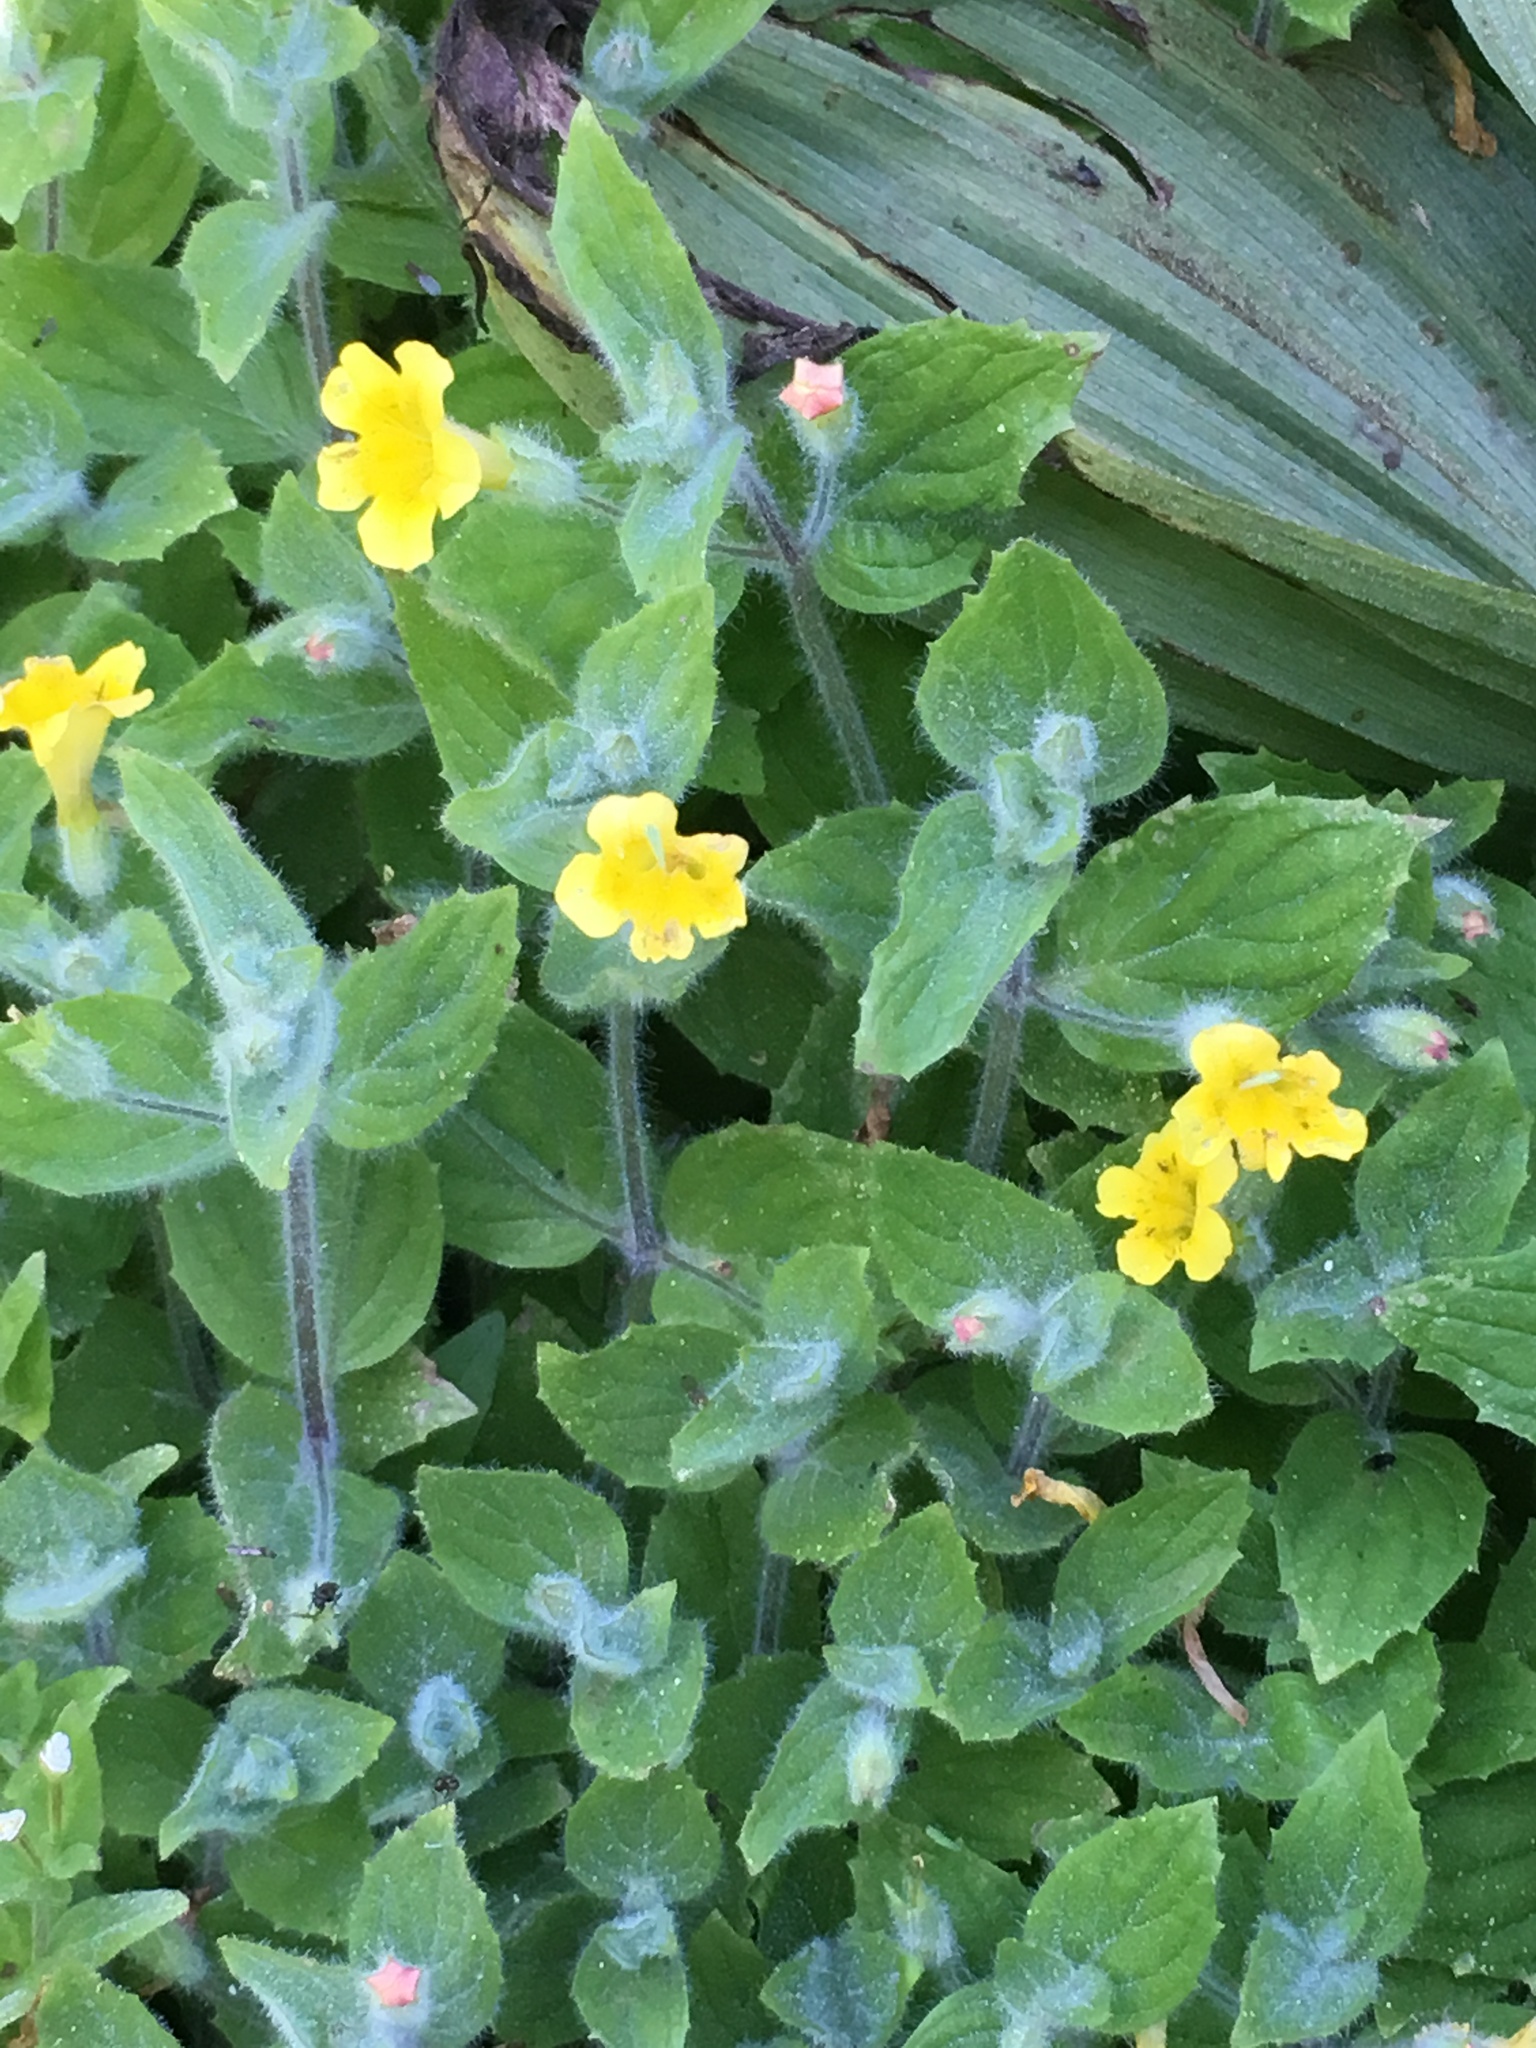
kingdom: Plantae
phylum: Tracheophyta
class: Magnoliopsida
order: Lamiales
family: Phrymaceae
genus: Erythranthe
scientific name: Erythranthe moschata
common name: Muskflower
